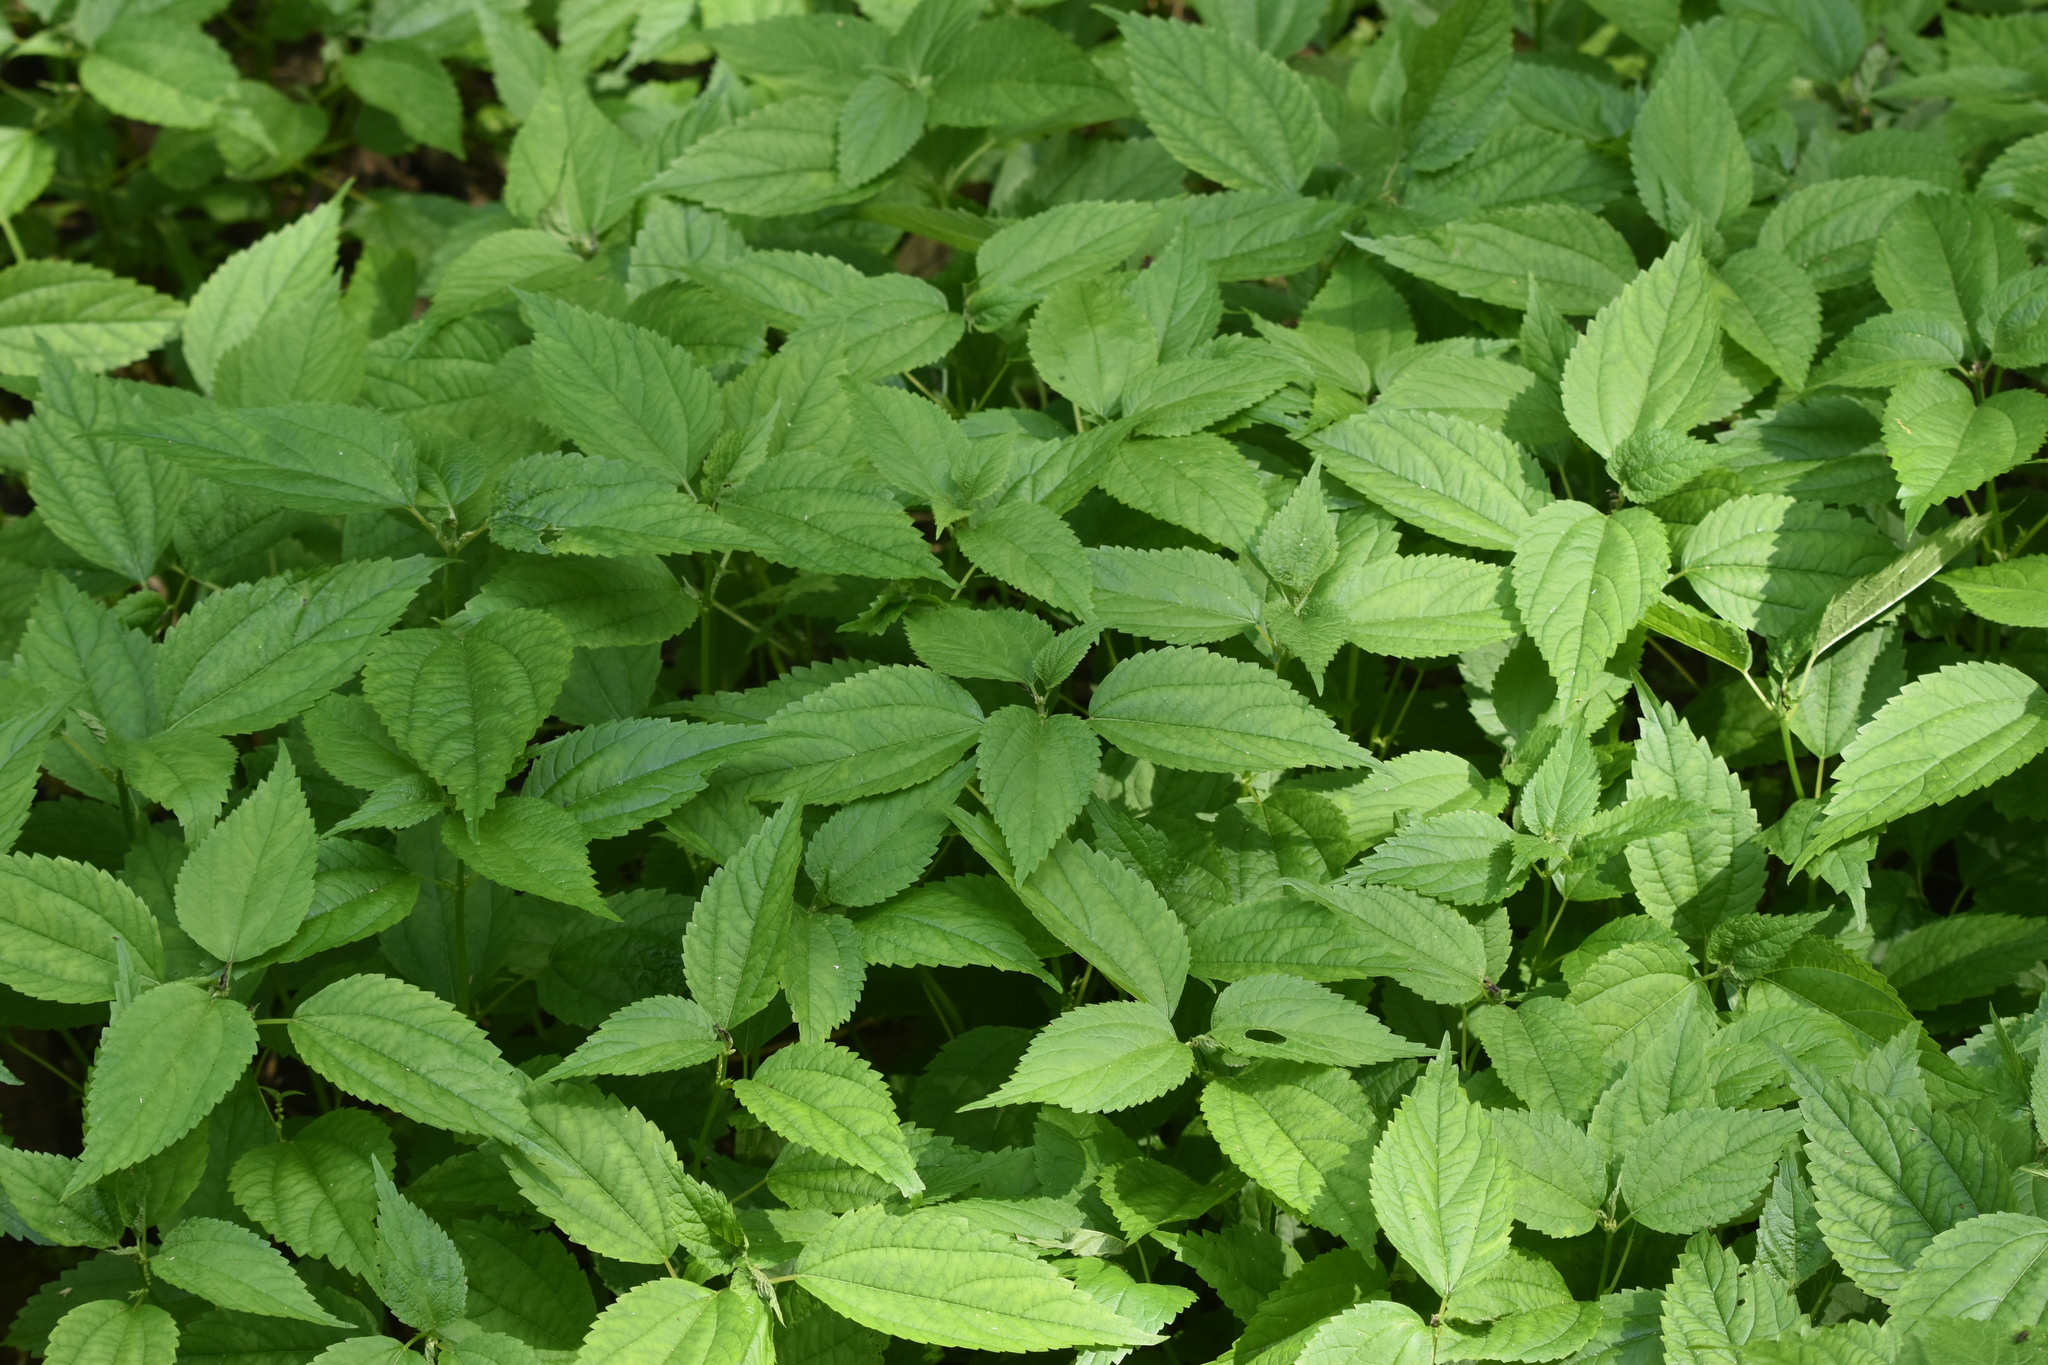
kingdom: Plantae
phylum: Tracheophyta
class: Magnoliopsida
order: Rosales
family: Urticaceae
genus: Boehmeria
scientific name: Boehmeria cylindrica
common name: Bog-hemp
